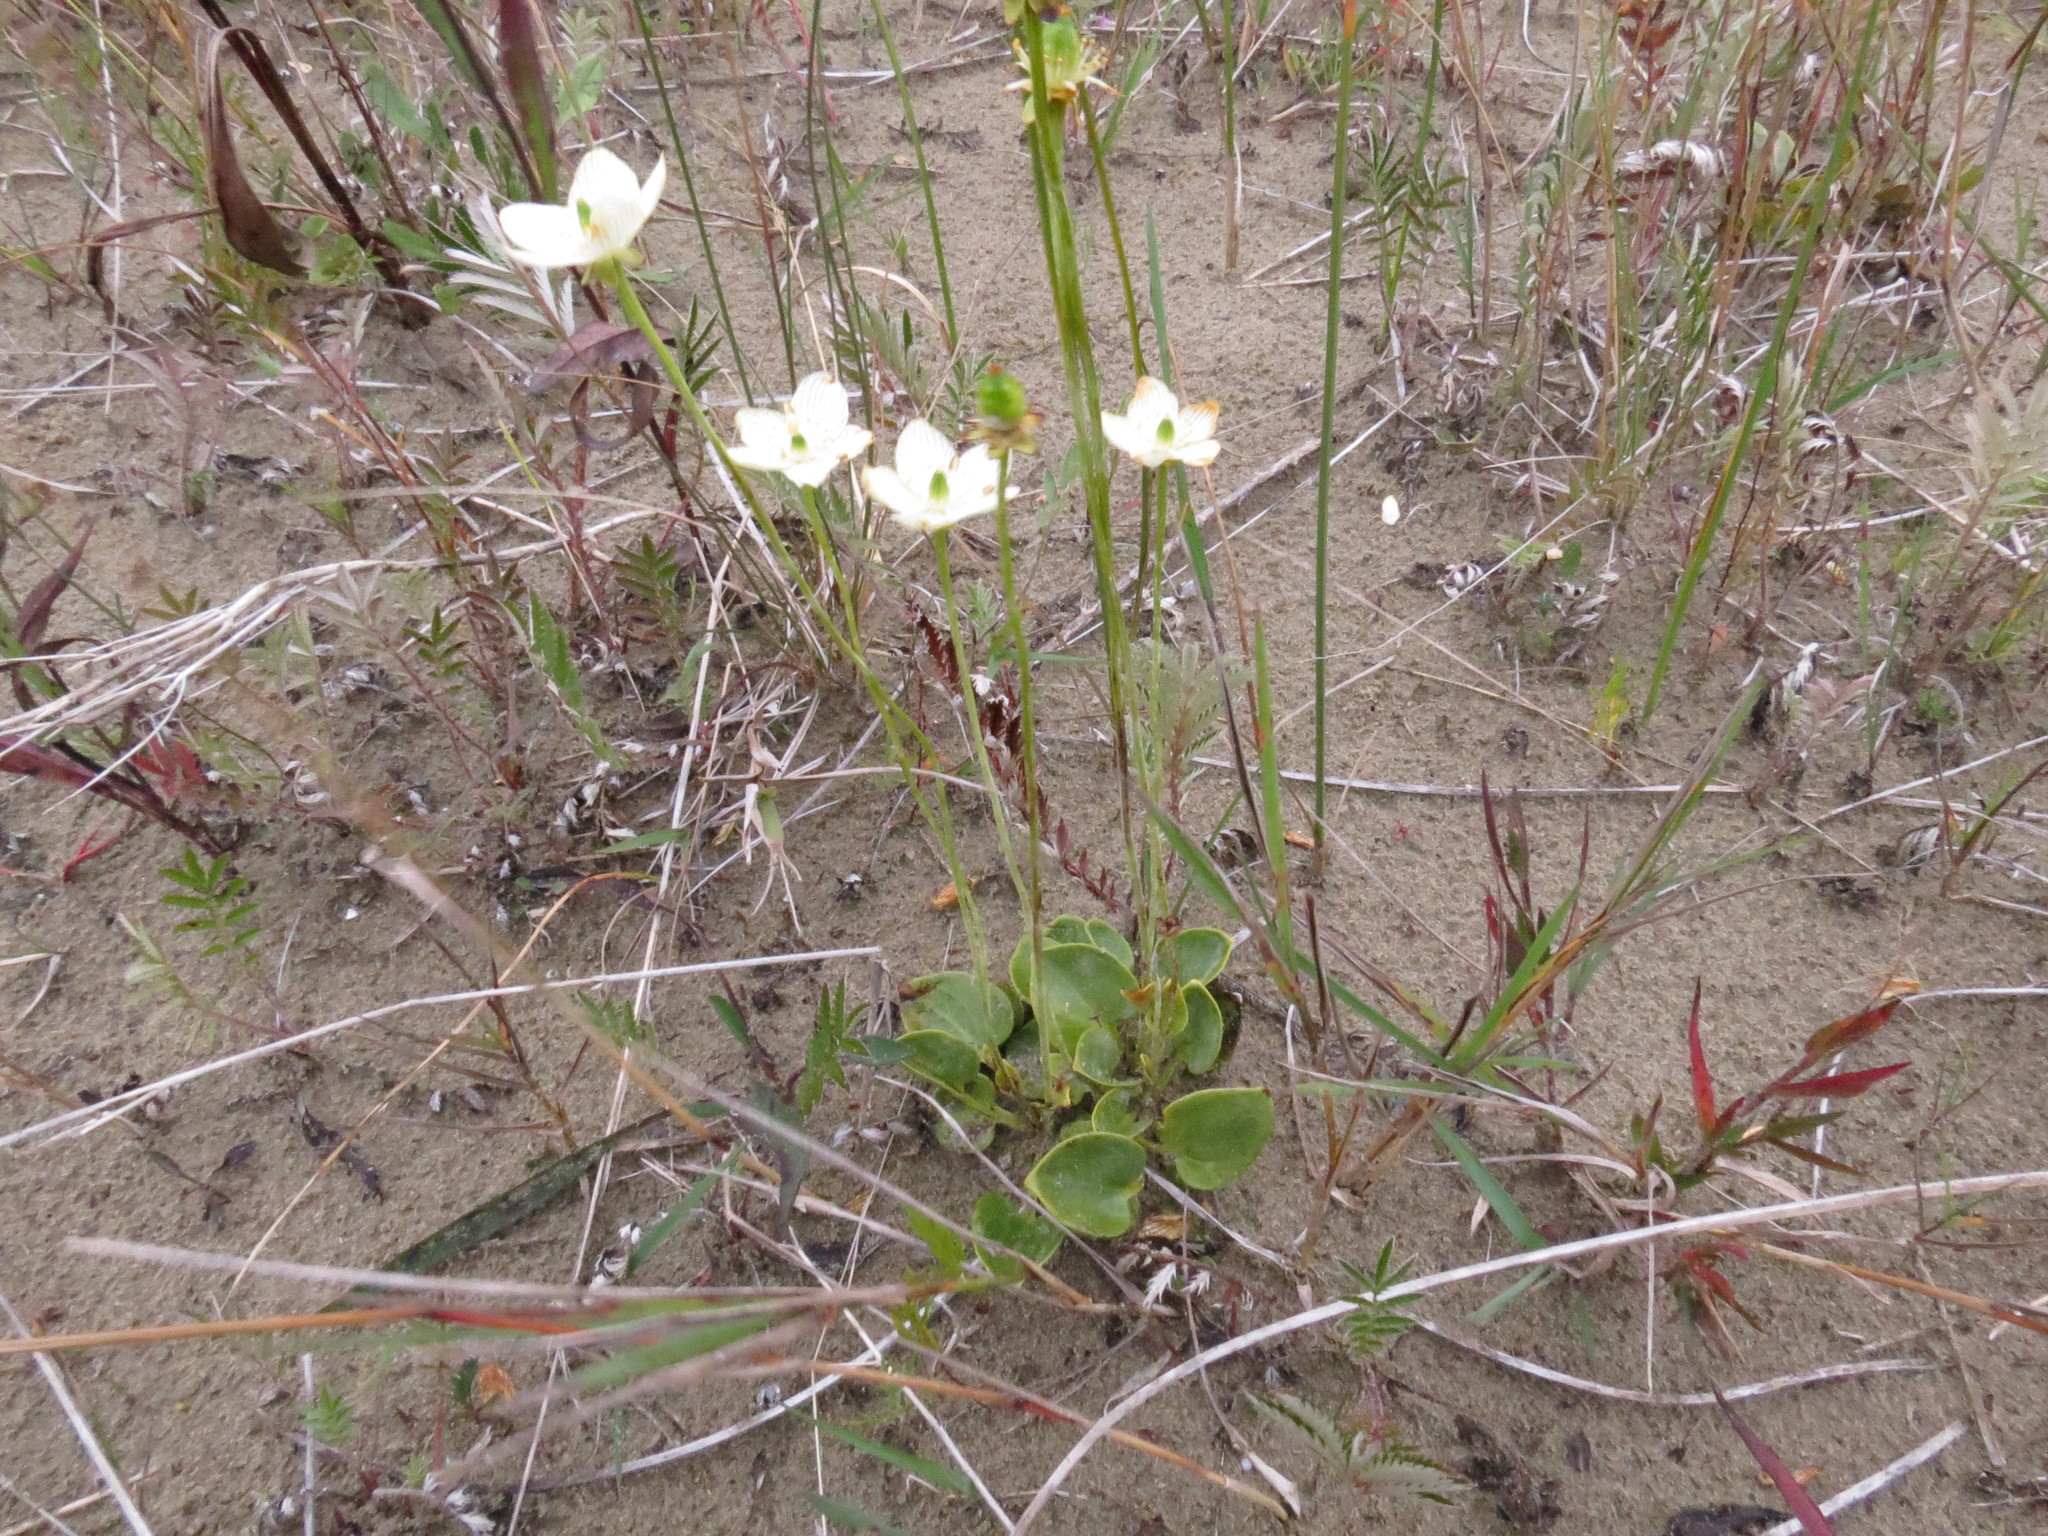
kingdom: Plantae
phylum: Tracheophyta
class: Magnoliopsida
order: Celastrales
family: Parnassiaceae
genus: Parnassia
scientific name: Parnassia glauca
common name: American grass-of-parnassus
